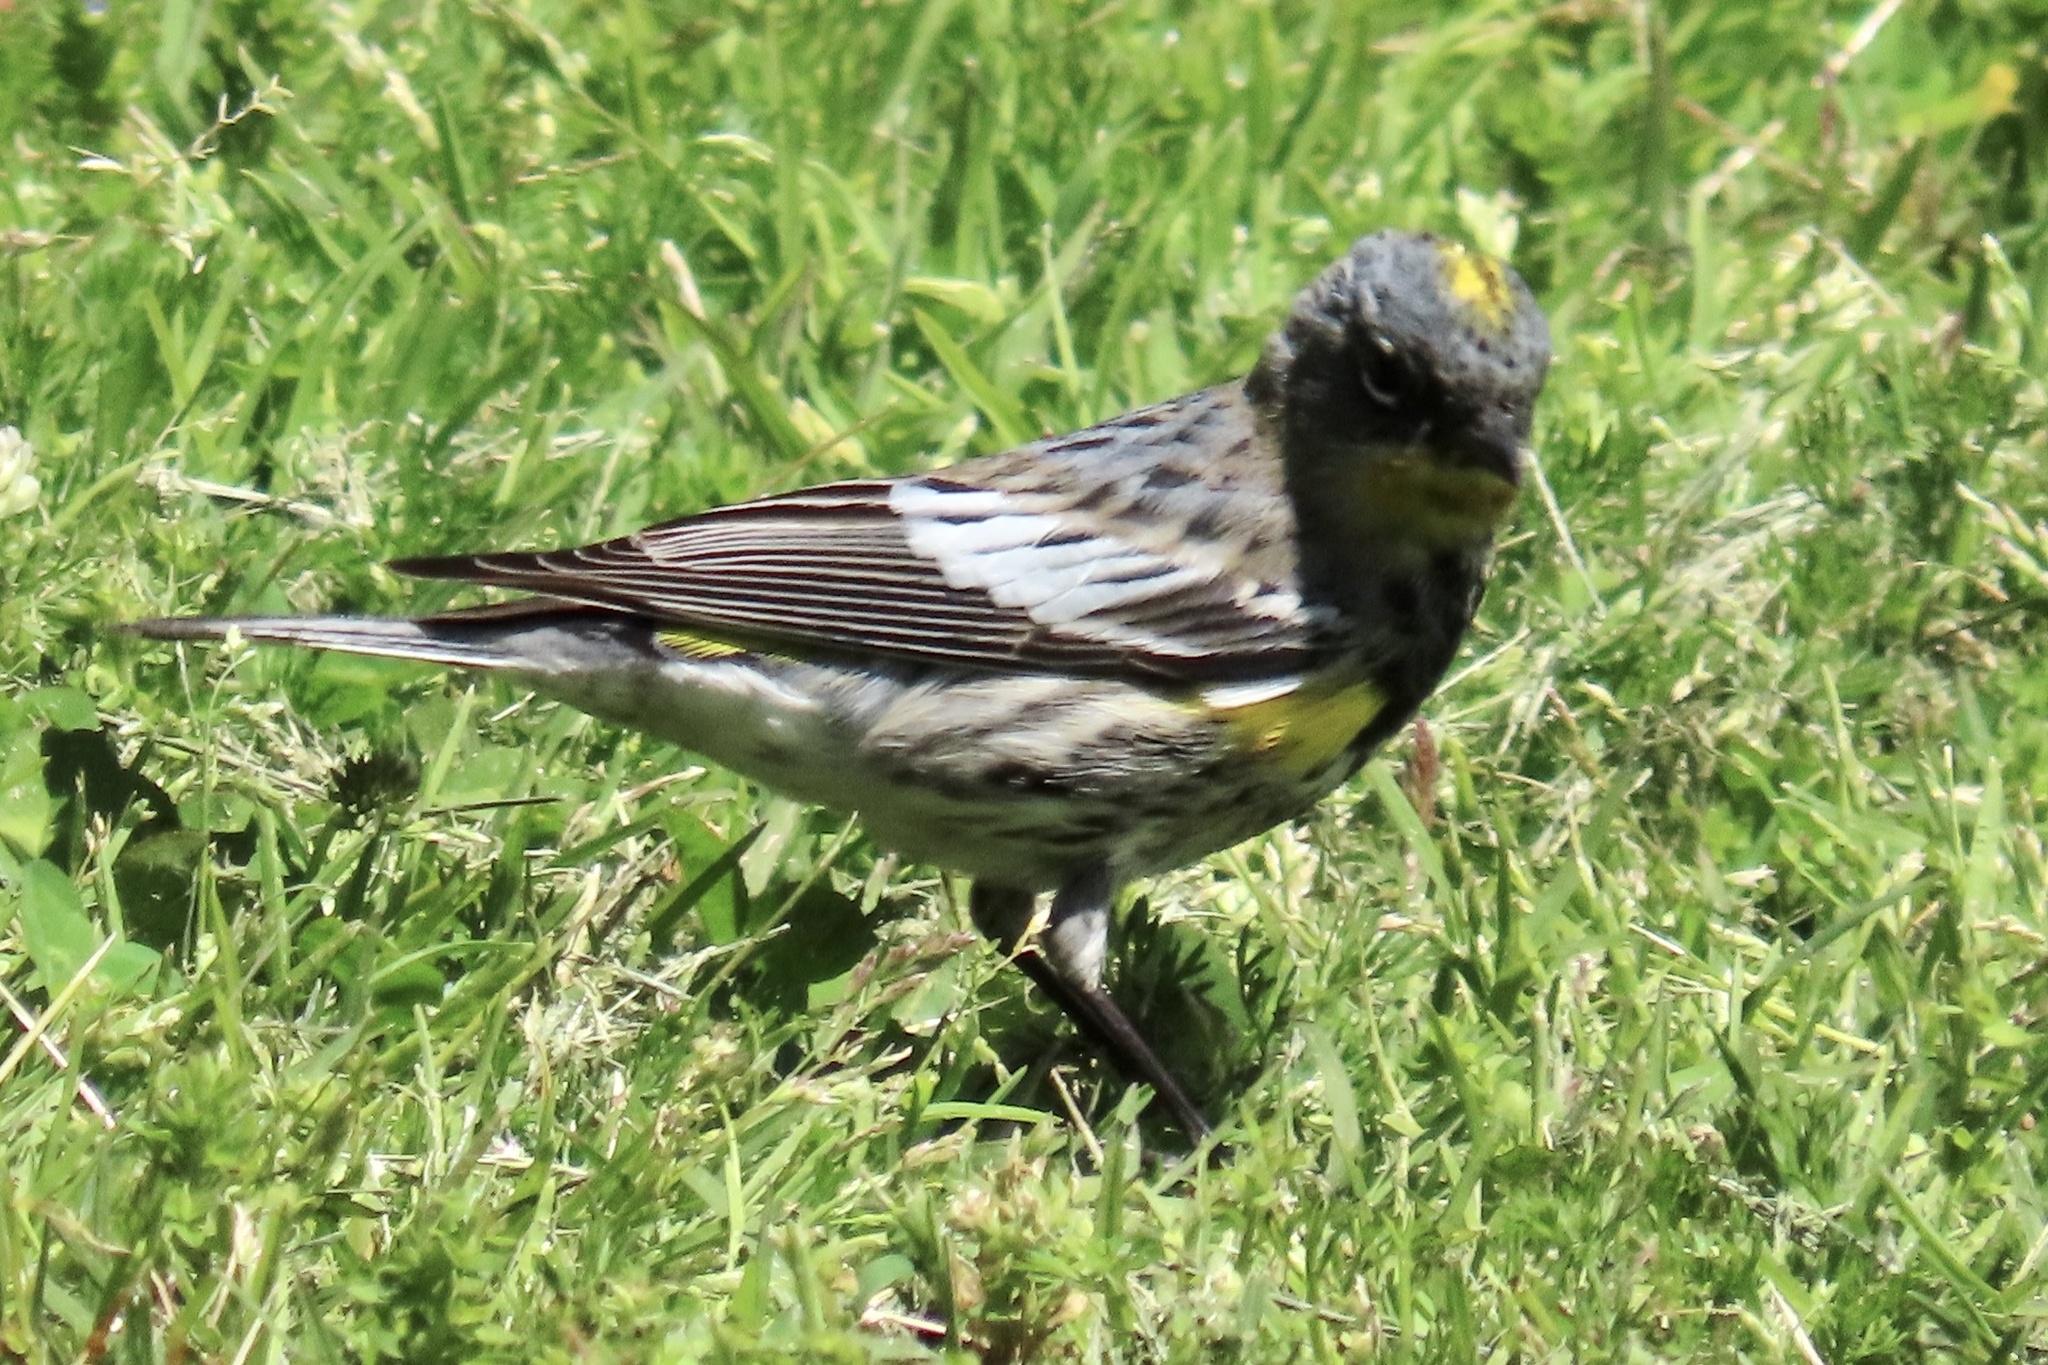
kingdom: Animalia
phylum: Chordata
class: Aves
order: Passeriformes
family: Parulidae
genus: Setophaga
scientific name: Setophaga coronata
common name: Myrtle warbler
